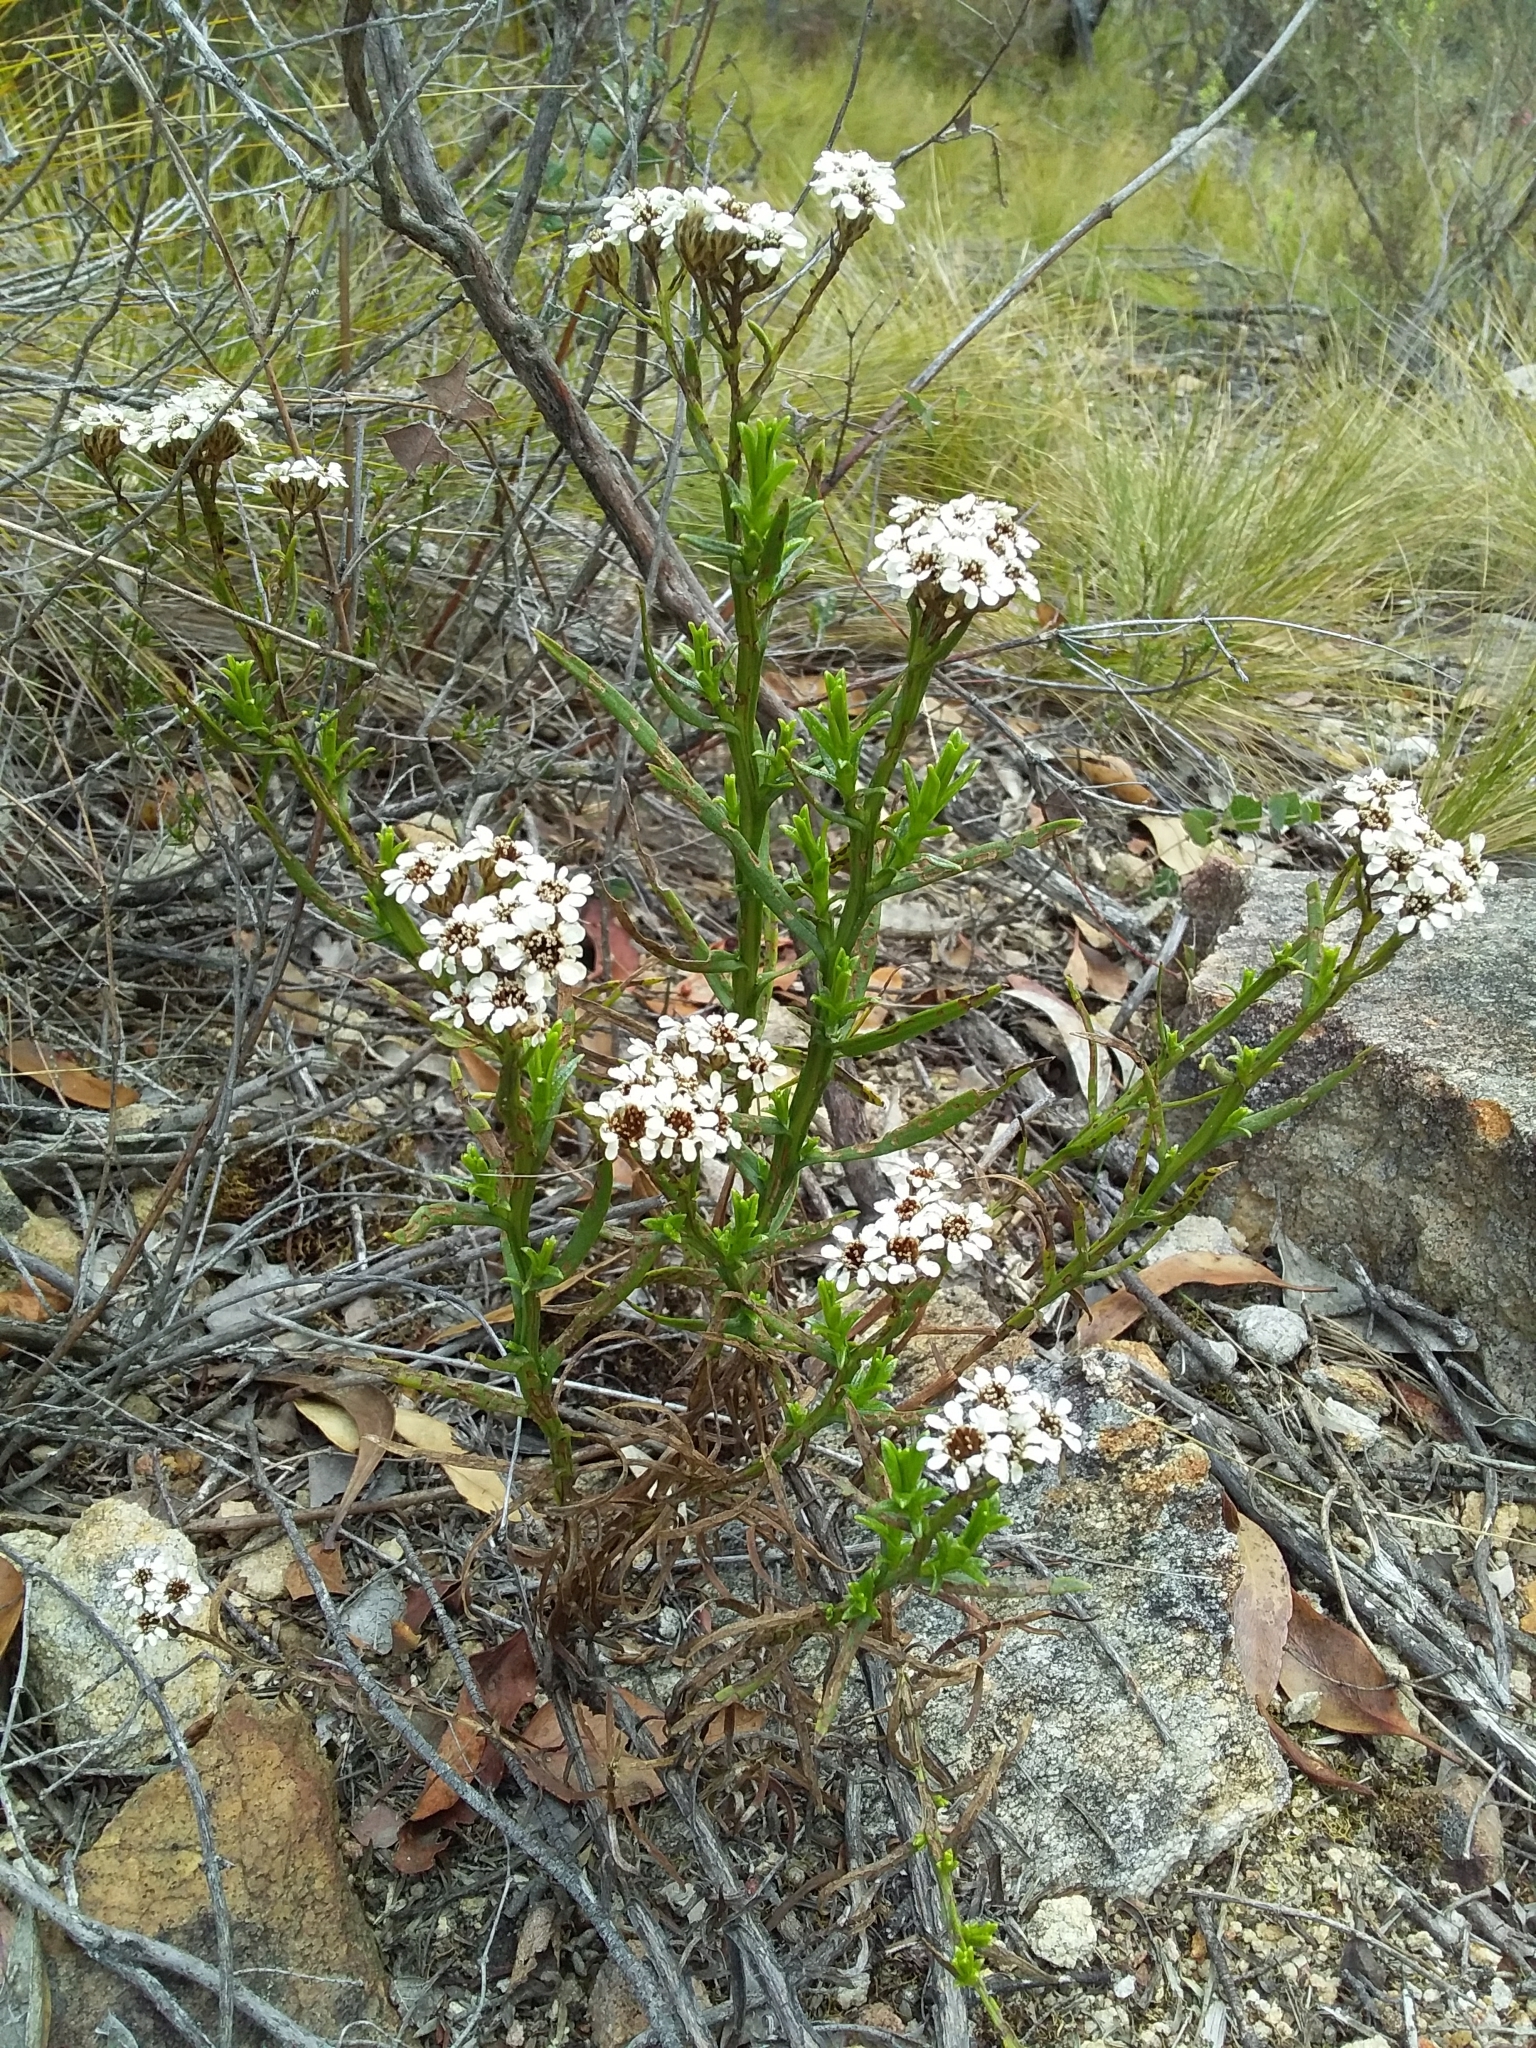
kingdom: Plantae
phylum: Tracheophyta
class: Magnoliopsida
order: Asterales
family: Asteraceae
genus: Ixodia
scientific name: Ixodia achillaeoides
